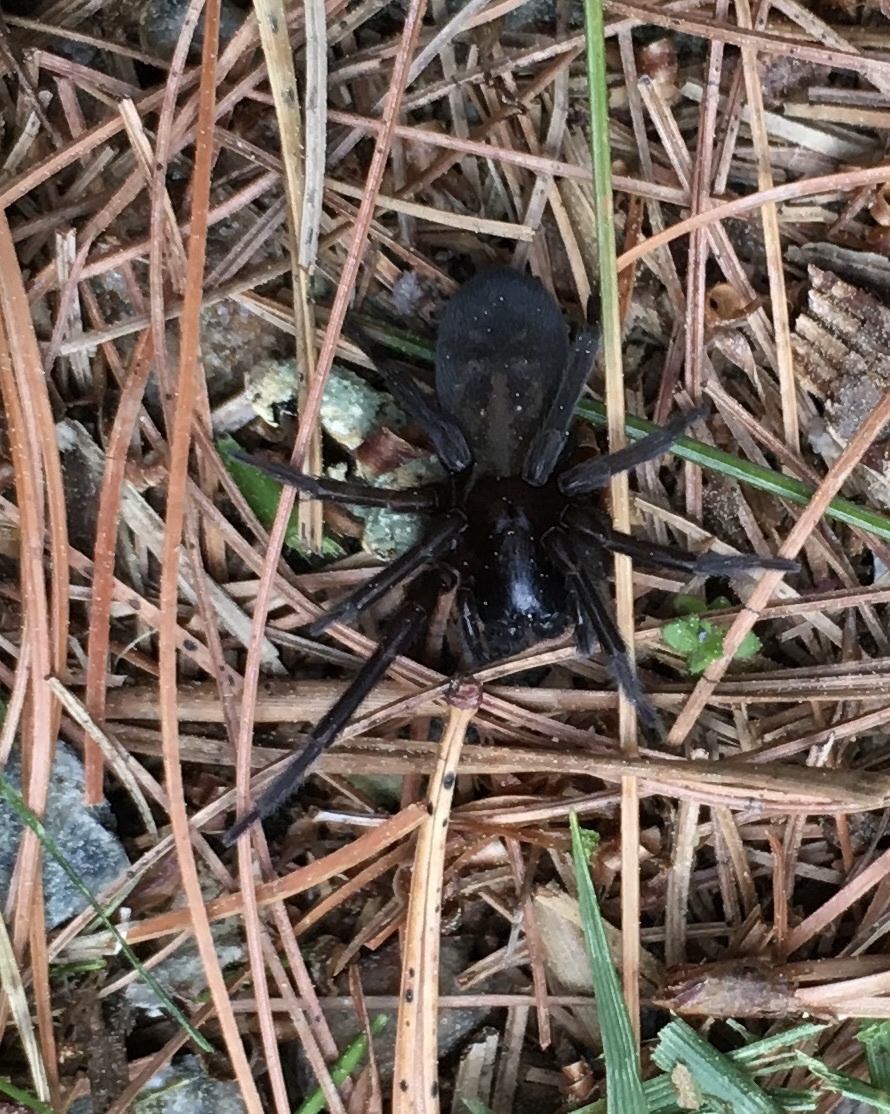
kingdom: Animalia
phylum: Arthropoda
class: Arachnida
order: Araneae
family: Amaurobiidae
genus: Amaurobius
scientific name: Amaurobius ferox
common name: Black laceweaver
